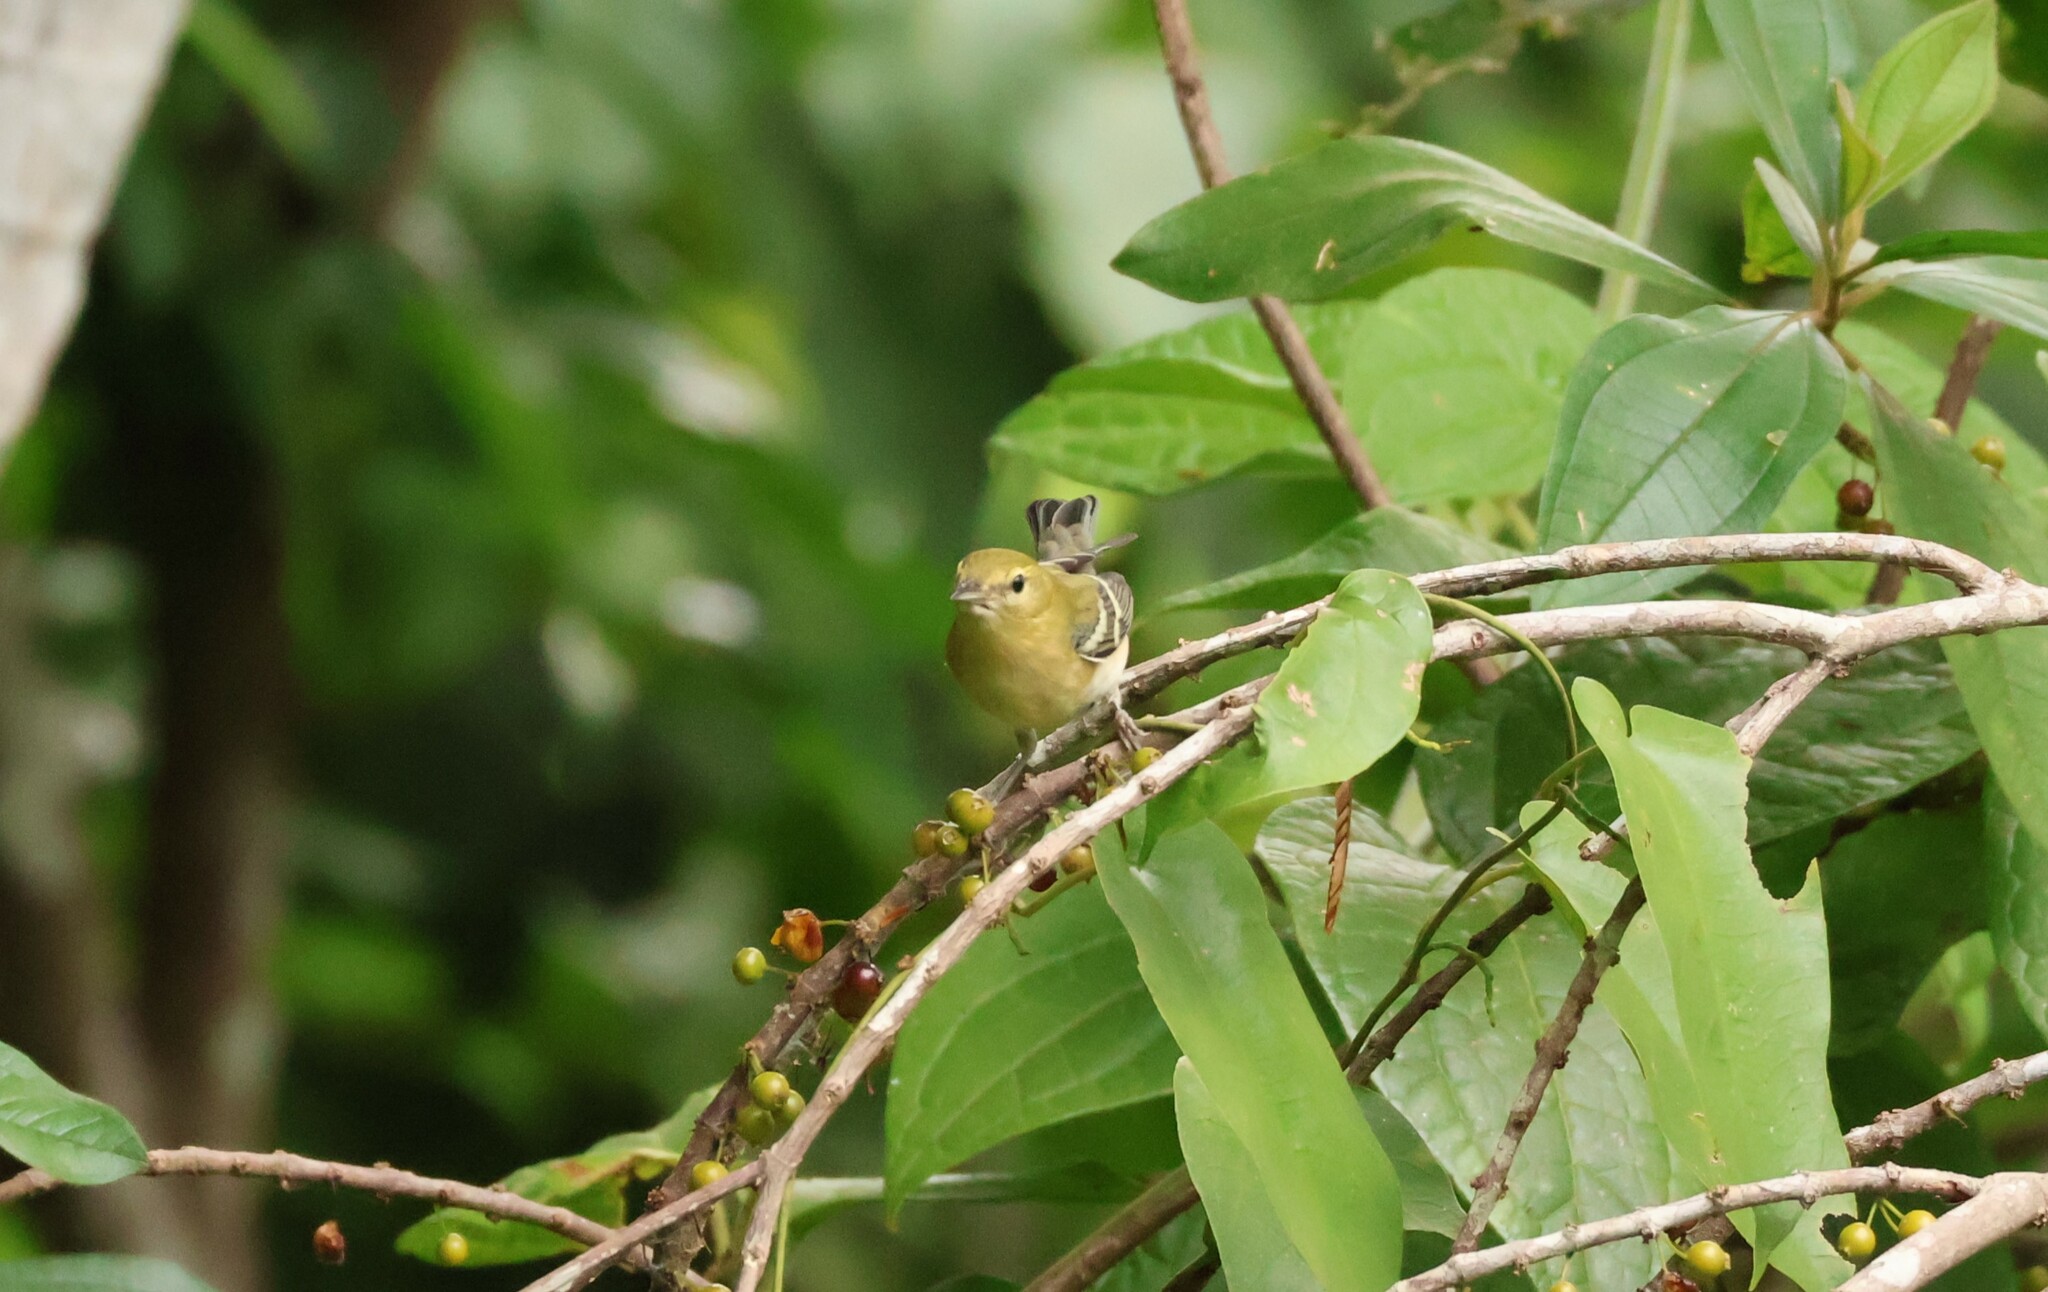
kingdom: Animalia
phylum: Chordata
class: Aves
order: Passeriformes
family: Parulidae
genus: Setophaga
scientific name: Setophaga castanea
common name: Bay-breasted warbler
